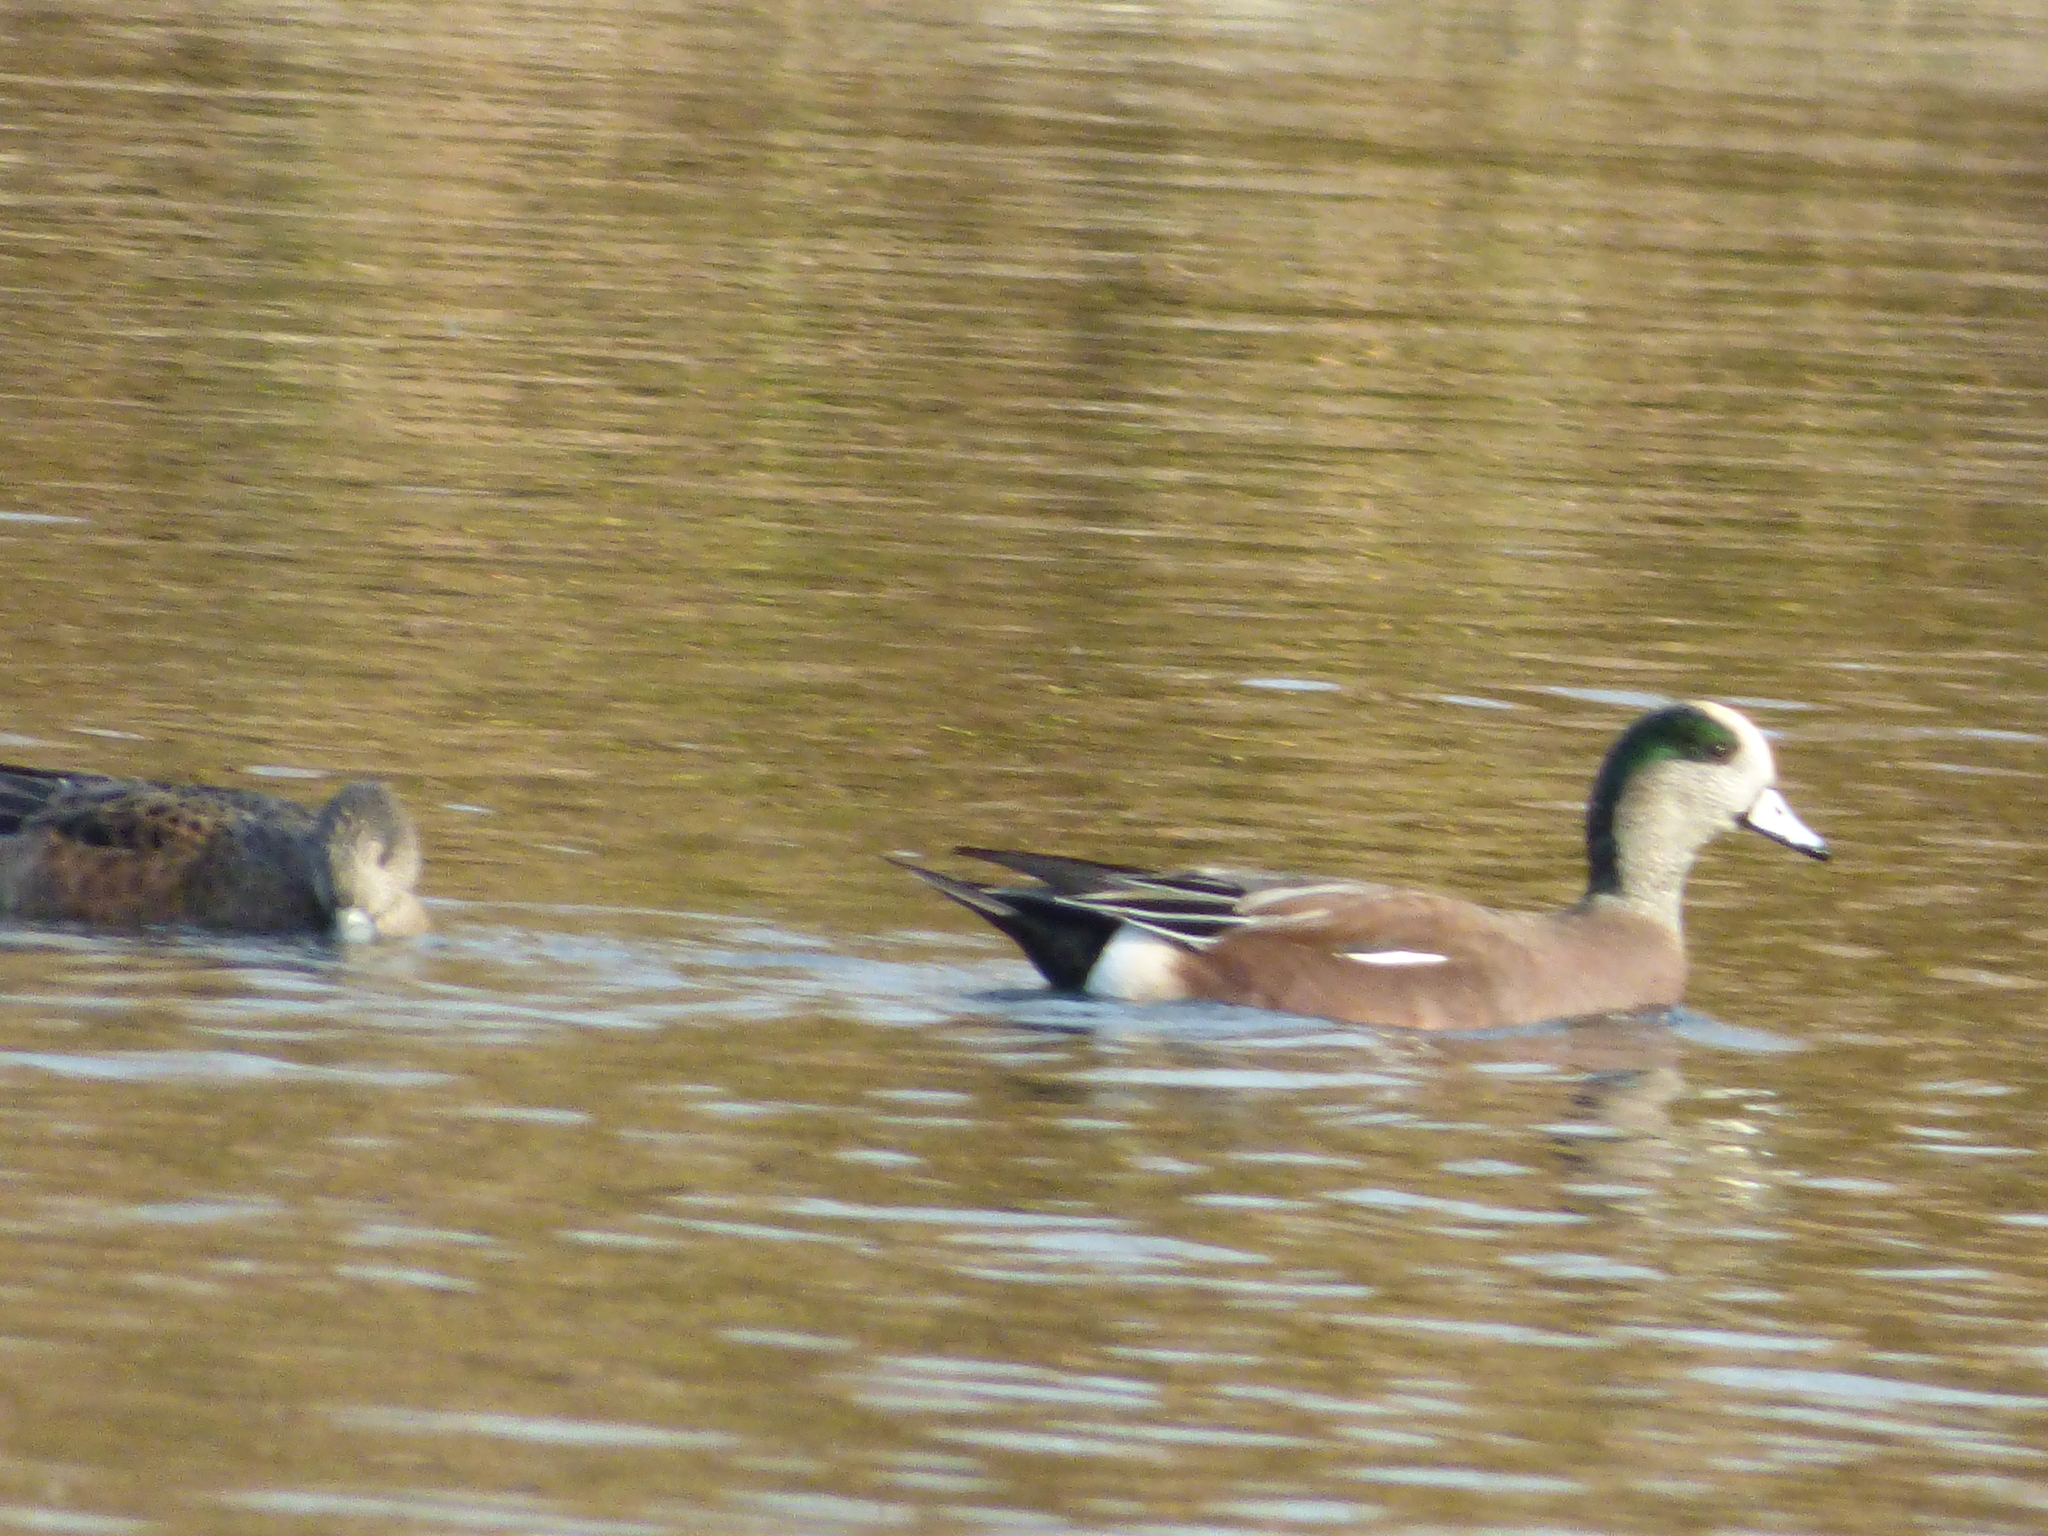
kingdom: Animalia
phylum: Chordata
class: Aves
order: Anseriformes
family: Anatidae
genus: Mareca
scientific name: Mareca americana
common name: American wigeon
